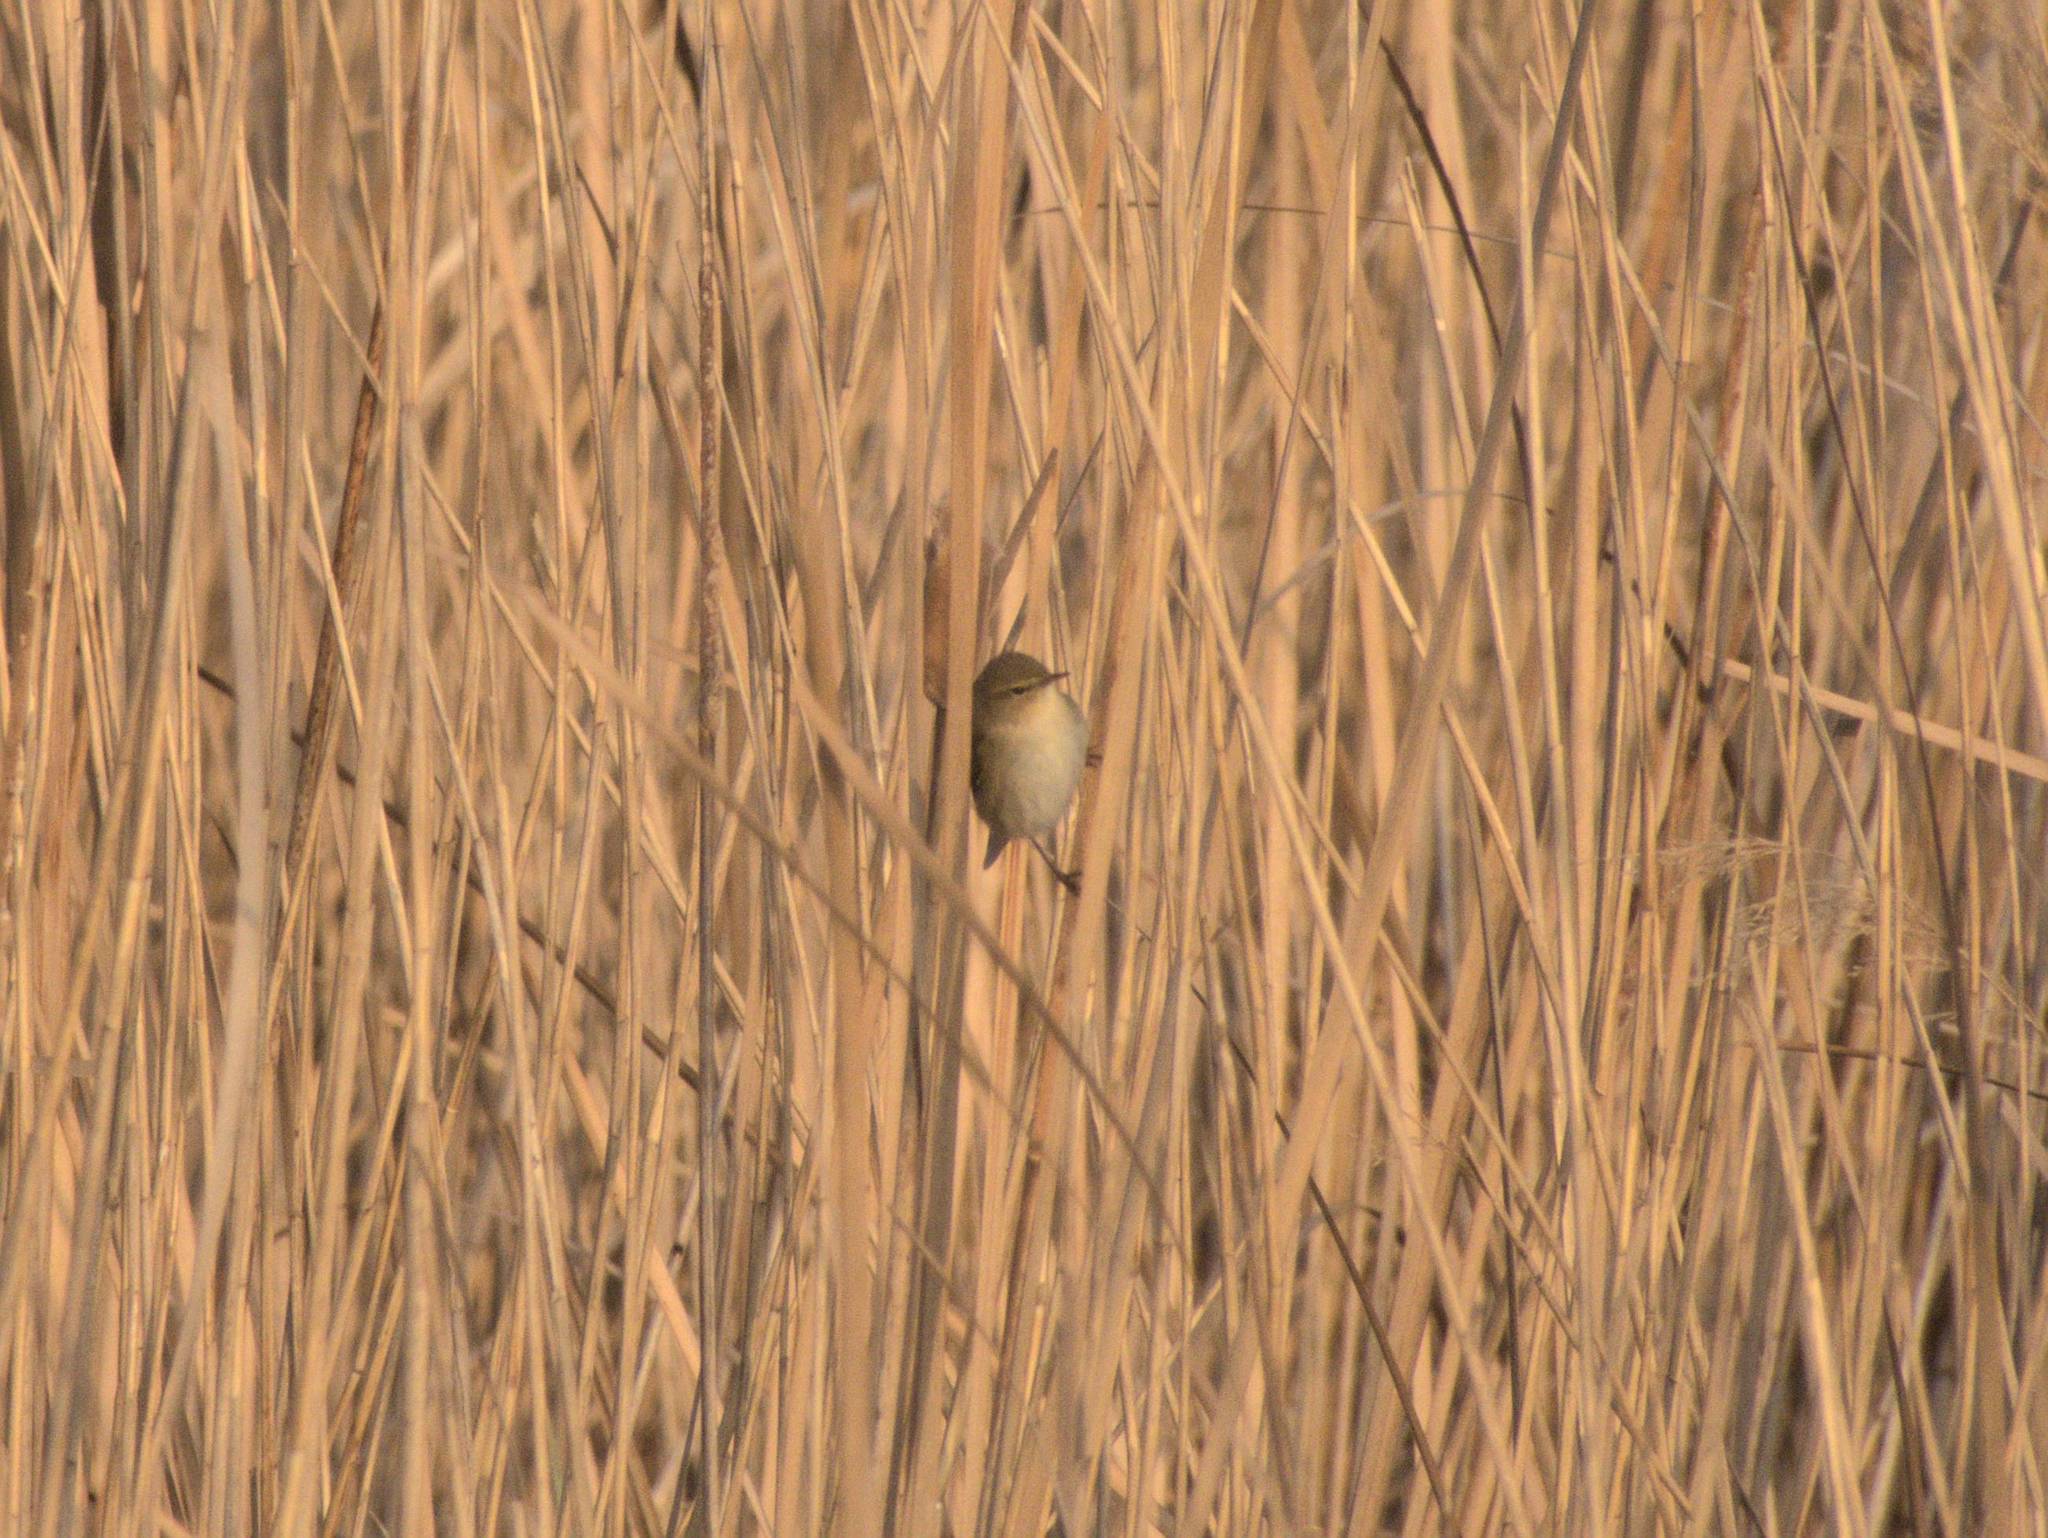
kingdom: Animalia
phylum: Chordata
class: Aves
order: Passeriformes
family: Phylloscopidae
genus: Phylloscopus
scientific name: Phylloscopus collybita
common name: Common chiffchaff
